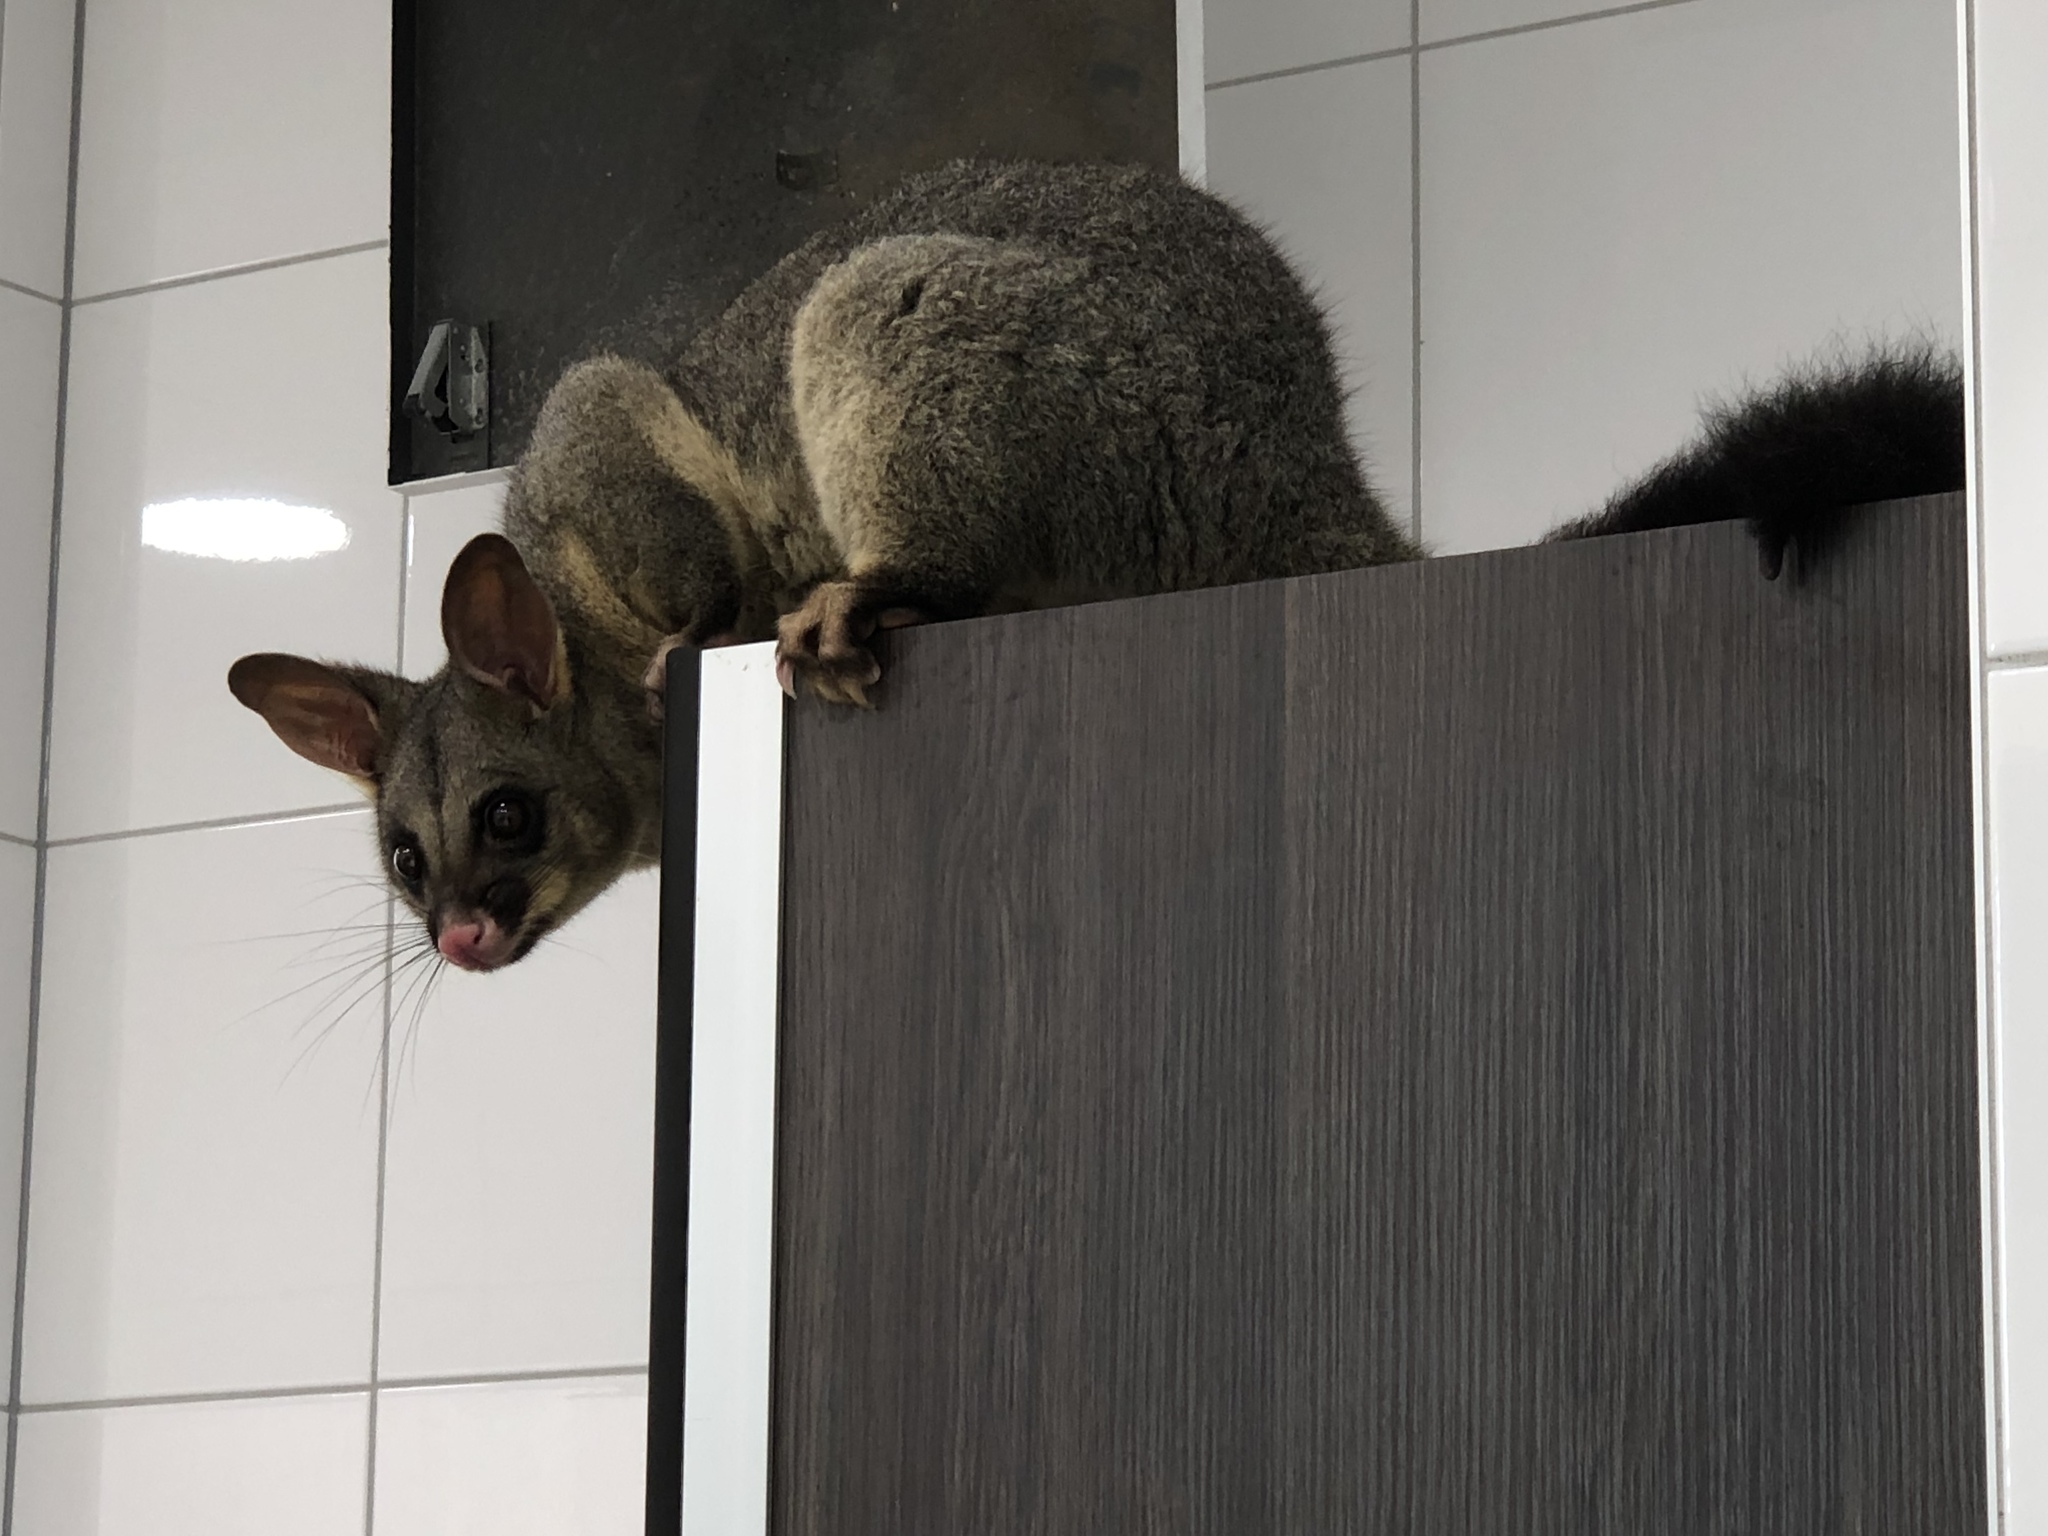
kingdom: Animalia
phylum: Chordata
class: Mammalia
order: Diprotodontia
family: Phalangeridae
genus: Trichosurus
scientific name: Trichosurus vulpecula
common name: Common brushtail
